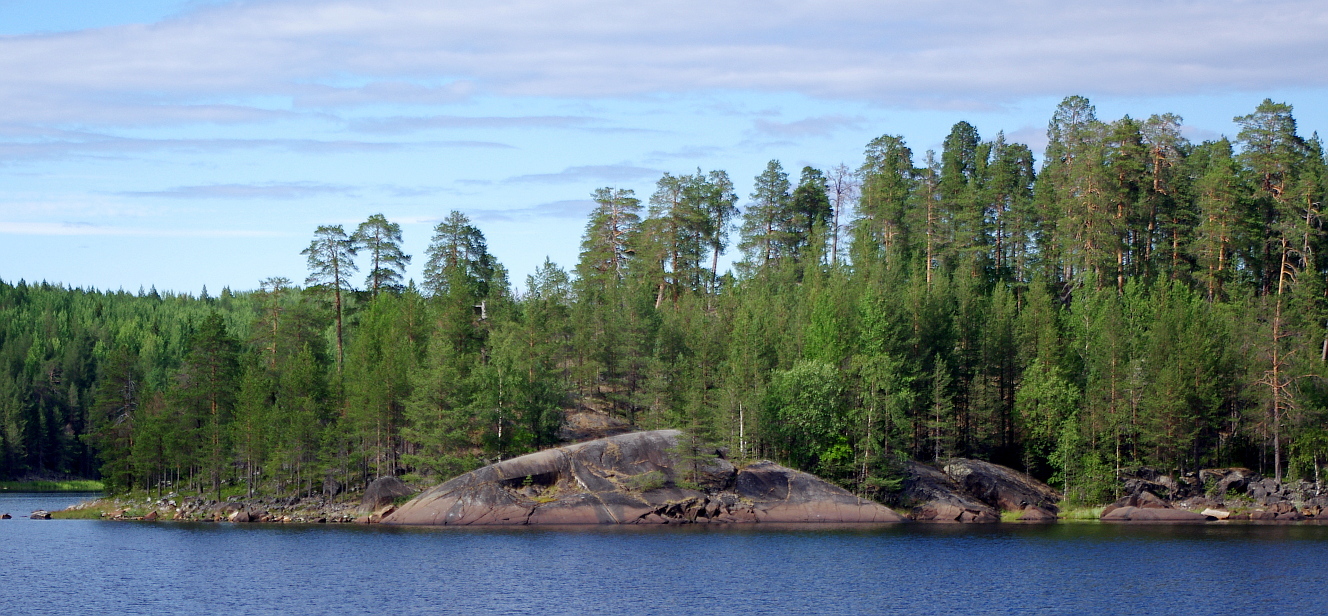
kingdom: Plantae
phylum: Tracheophyta
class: Pinopsida
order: Pinales
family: Pinaceae
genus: Pinus
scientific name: Pinus sylvestris
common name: Scots pine
